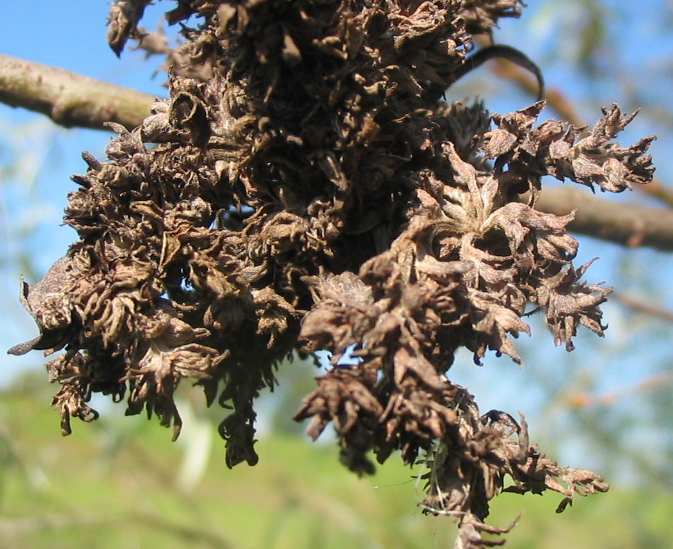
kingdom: Animalia
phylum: Arthropoda
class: Arachnida
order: Trombidiformes
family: Eriophyidae
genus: Stenacis
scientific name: Stenacis triradiatus
